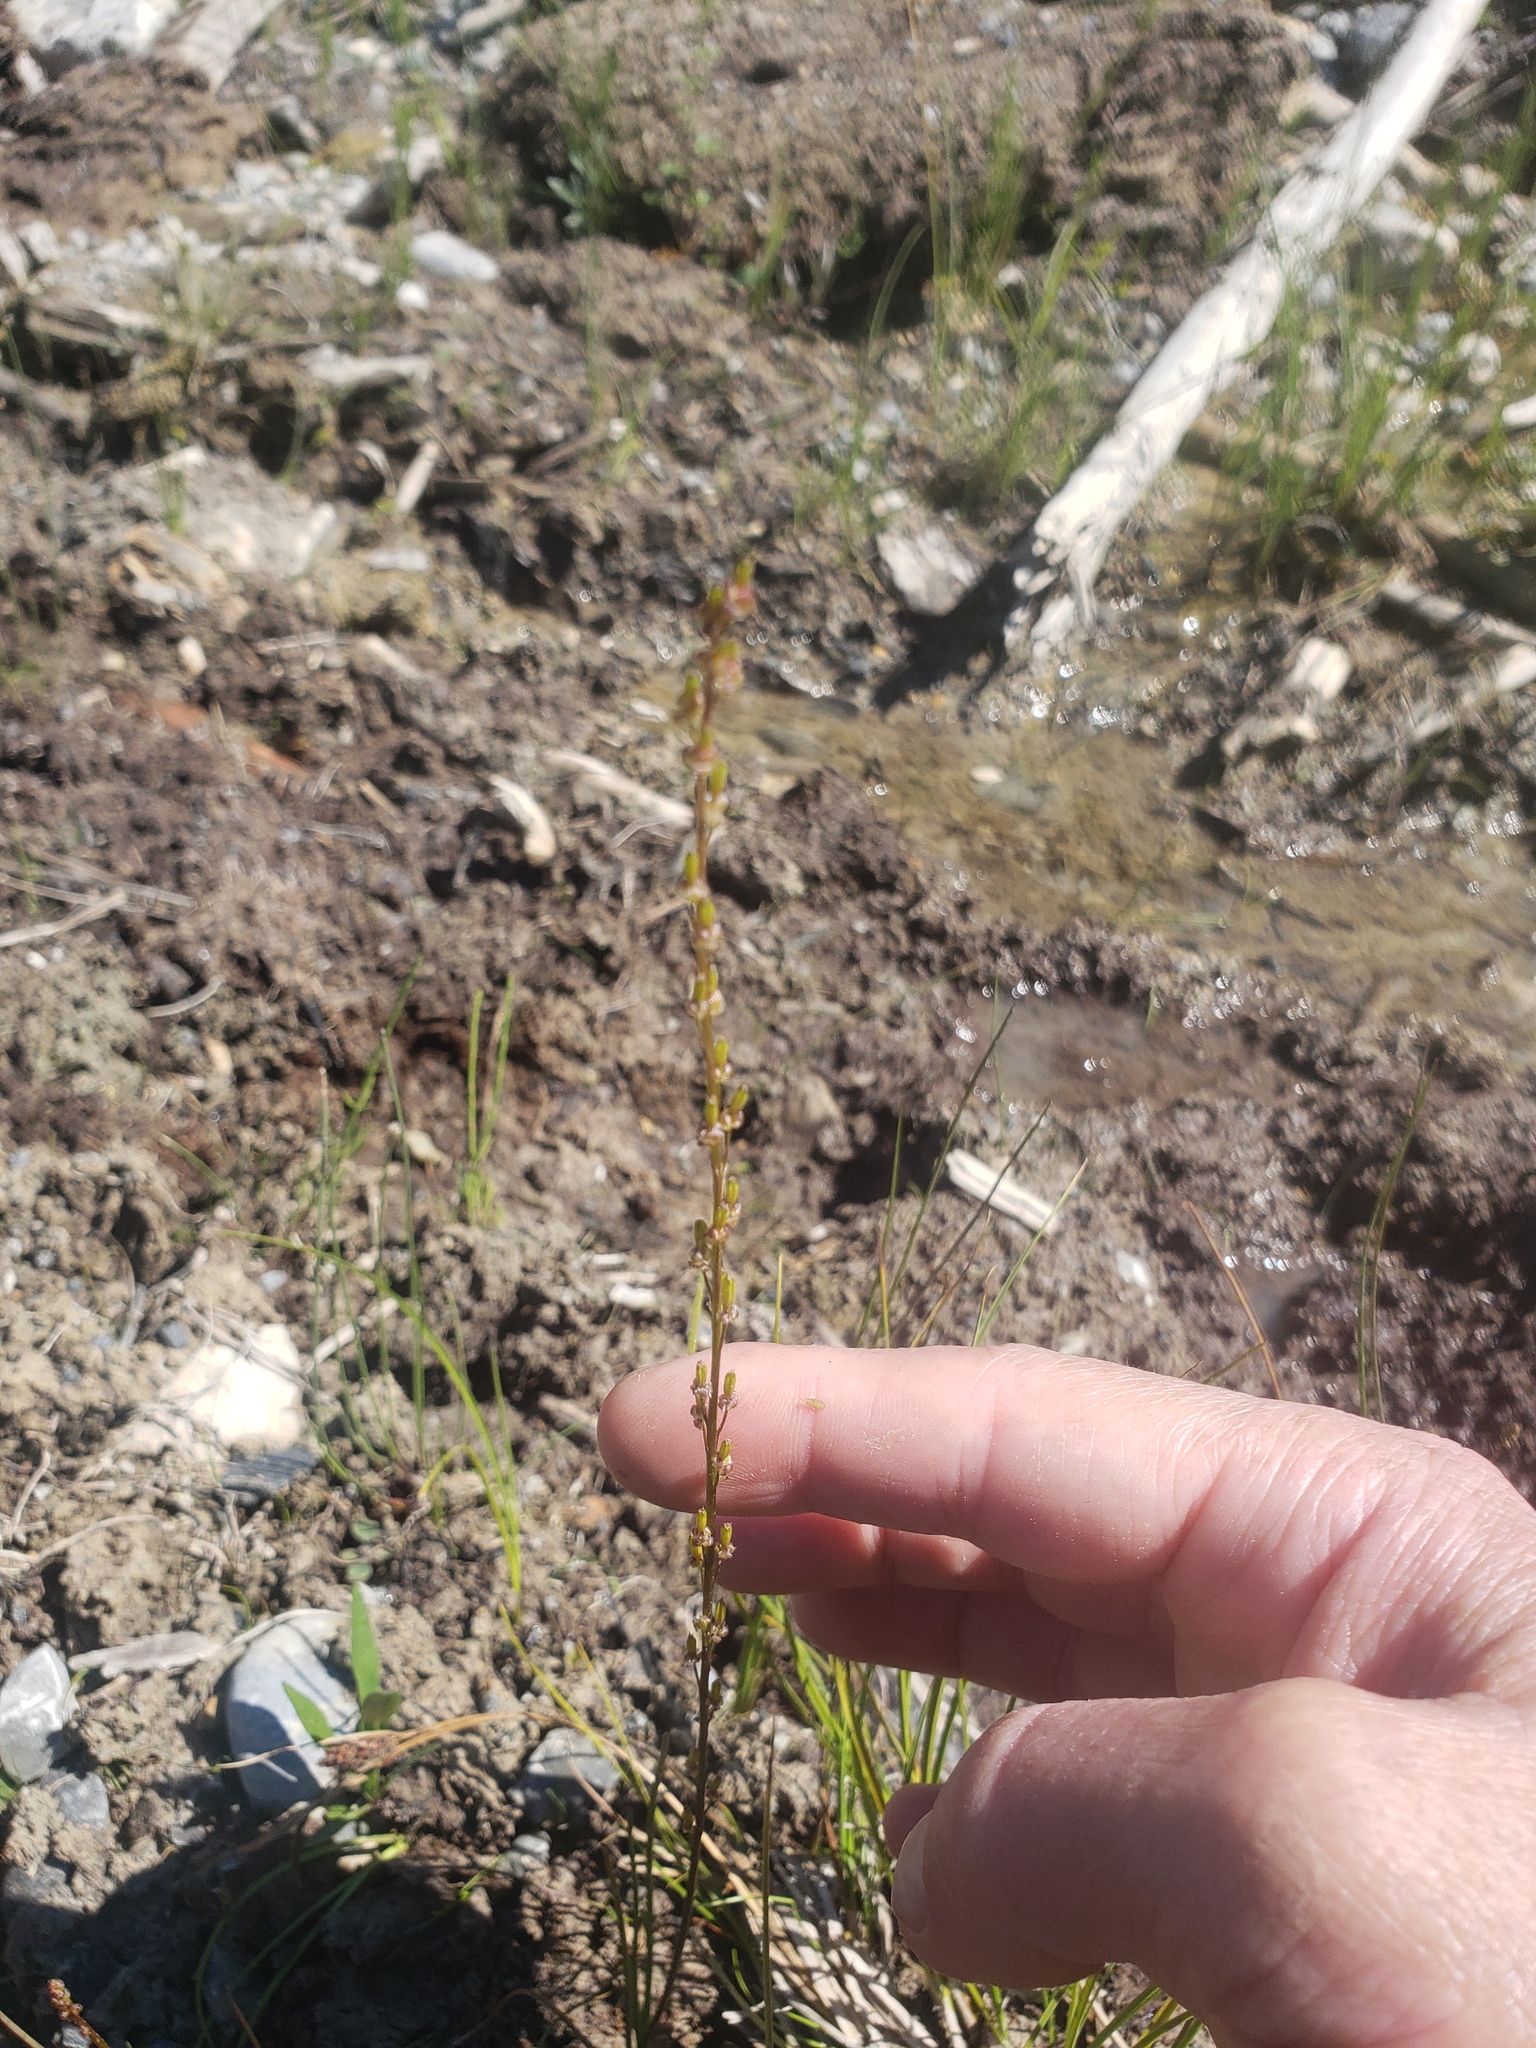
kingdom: Plantae
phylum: Tracheophyta
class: Liliopsida
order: Alismatales
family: Juncaginaceae
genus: Triglochin
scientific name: Triglochin palustris
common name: Marsh arrowgrass
